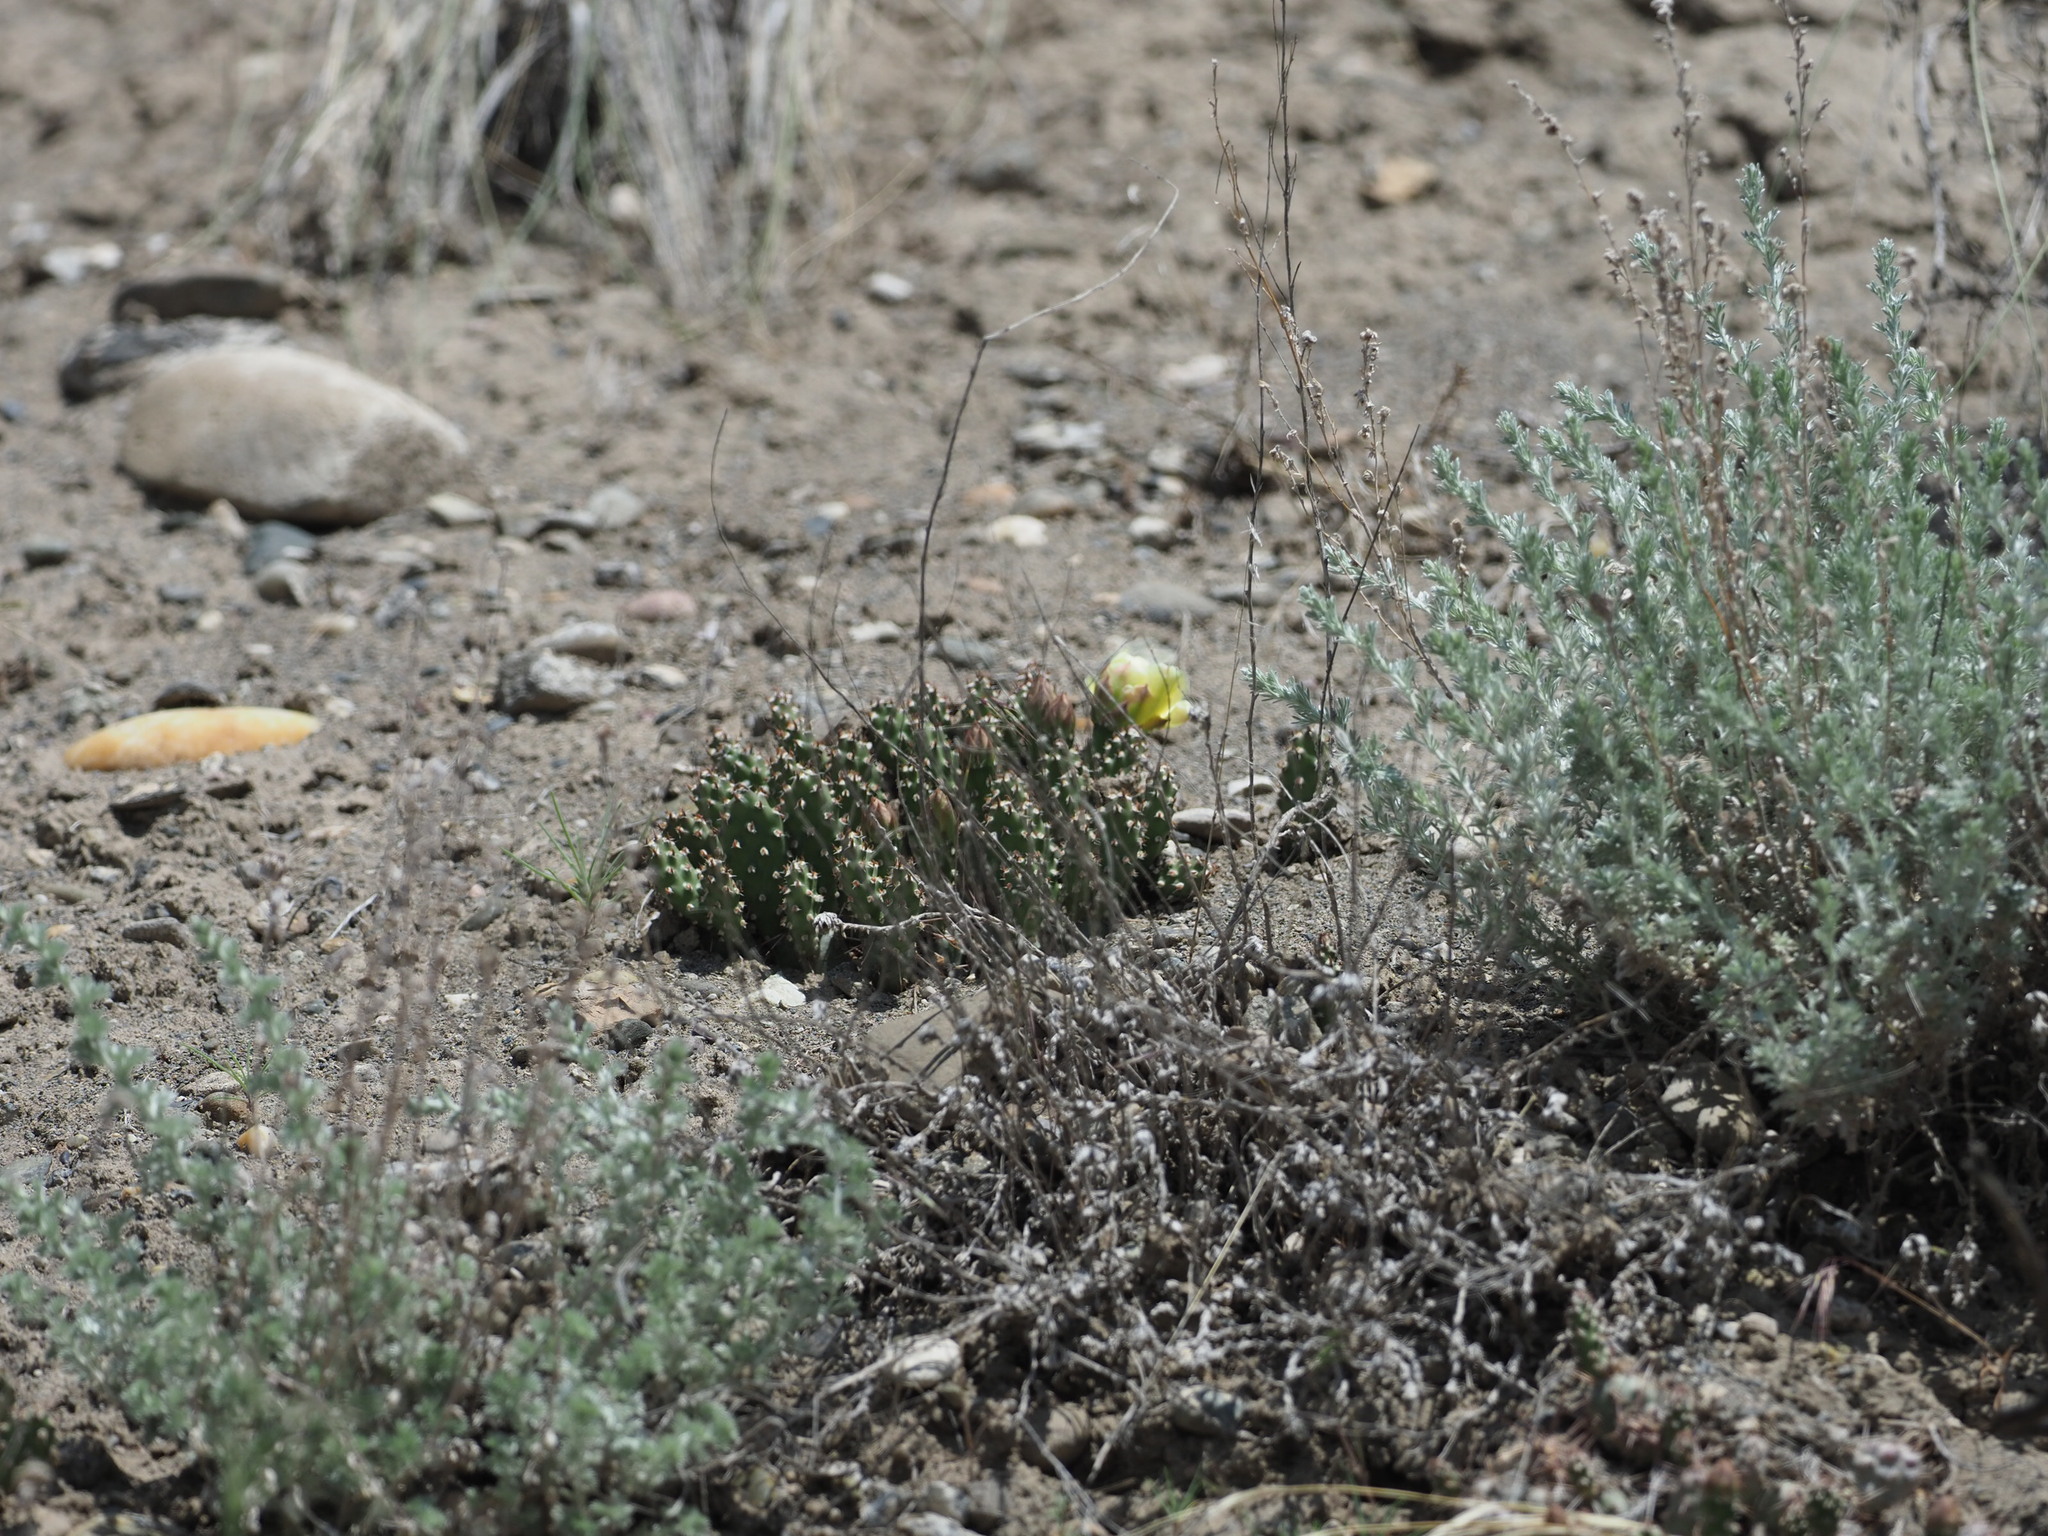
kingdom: Plantae
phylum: Tracheophyta
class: Magnoliopsida
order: Caryophyllales
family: Cactaceae
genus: Opuntia
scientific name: Opuntia fragilis
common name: Brittle cactus
